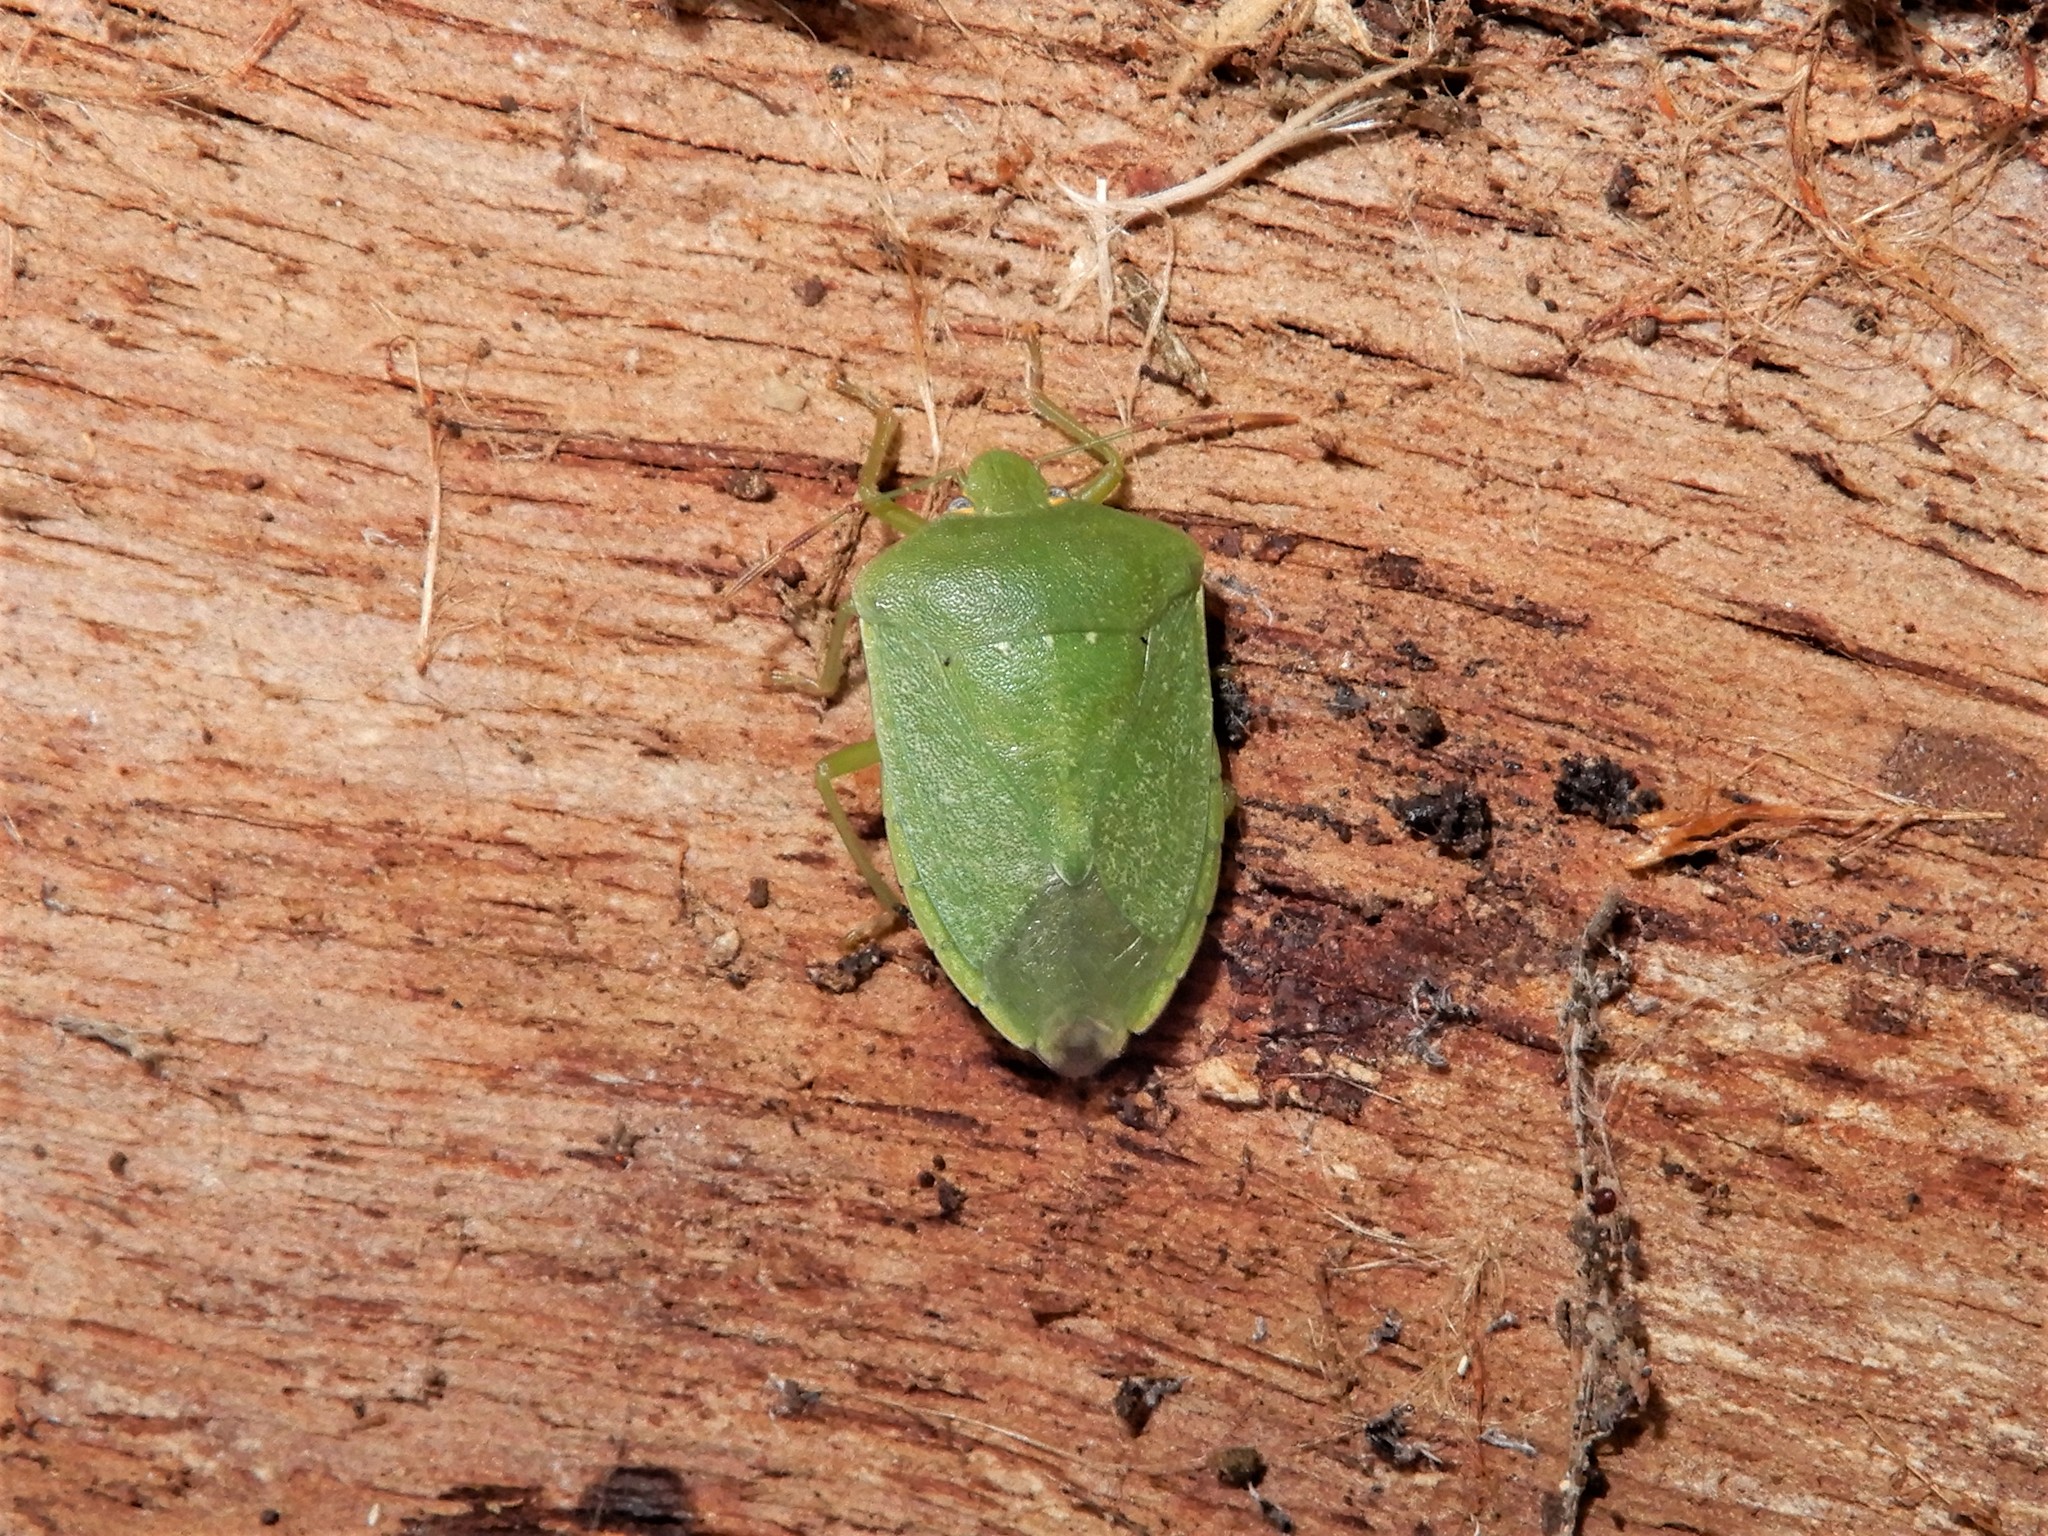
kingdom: Animalia
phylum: Arthropoda
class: Insecta
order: Hemiptera
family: Pentatomidae
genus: Nezara
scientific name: Nezara viridula
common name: Southern green stink bug
